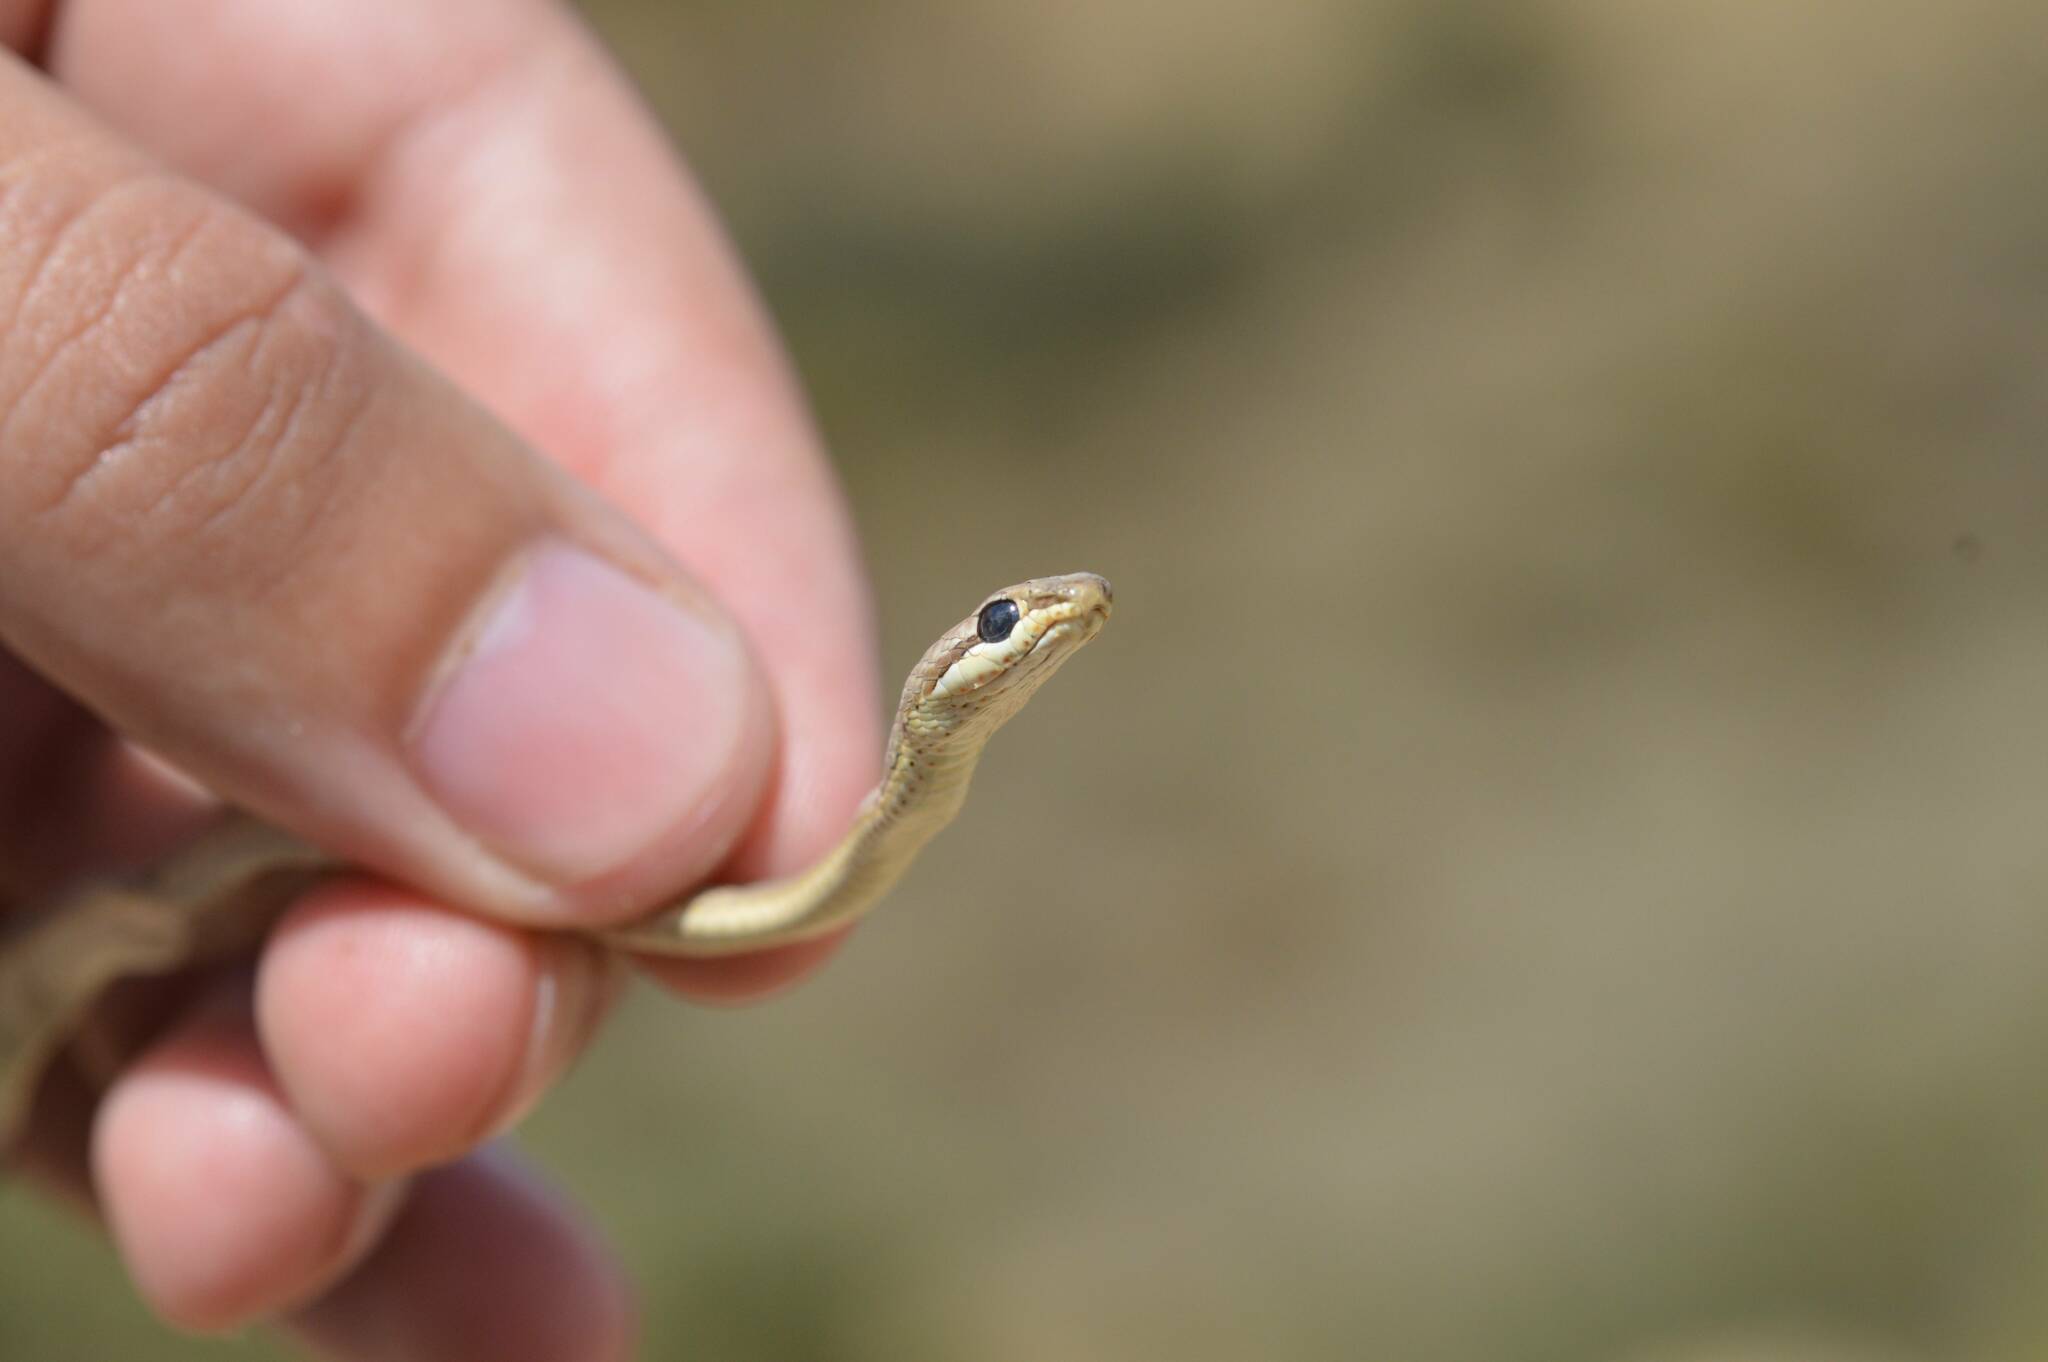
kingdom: Animalia
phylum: Chordata
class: Squamata
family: Psammophiidae
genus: Psammophis
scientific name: Psammophis schokari
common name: Schokari sand racer
